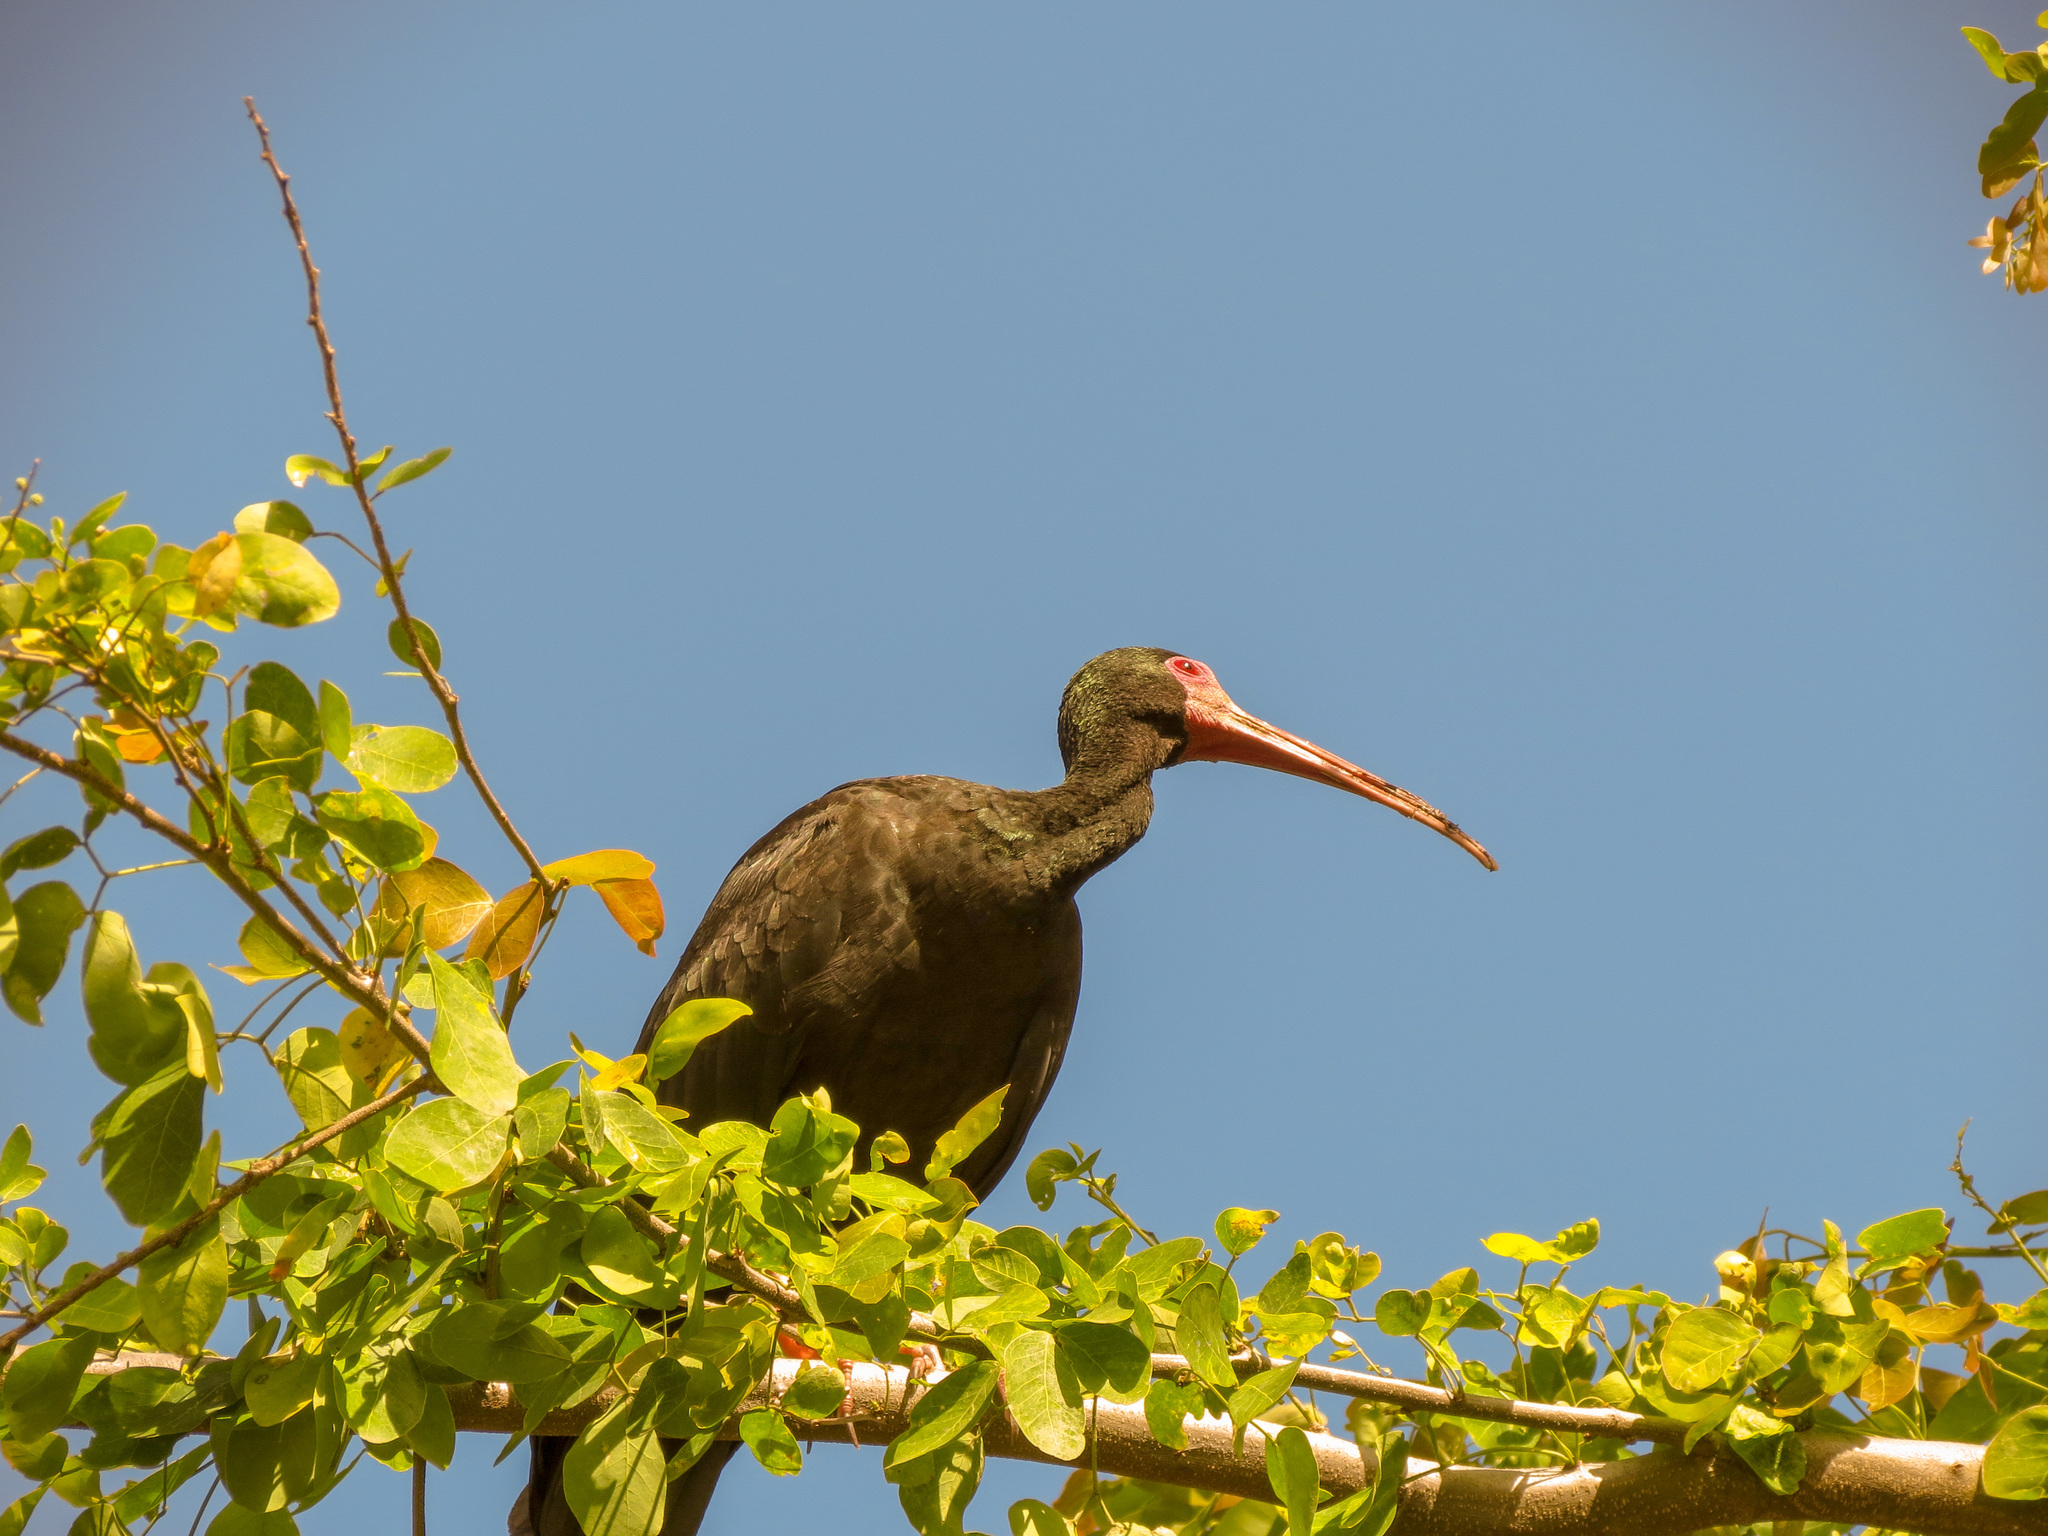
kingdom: Animalia
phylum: Chordata
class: Aves
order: Pelecaniformes
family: Threskiornithidae
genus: Phimosus
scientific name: Phimosus infuscatus
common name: Bare-faced ibis
